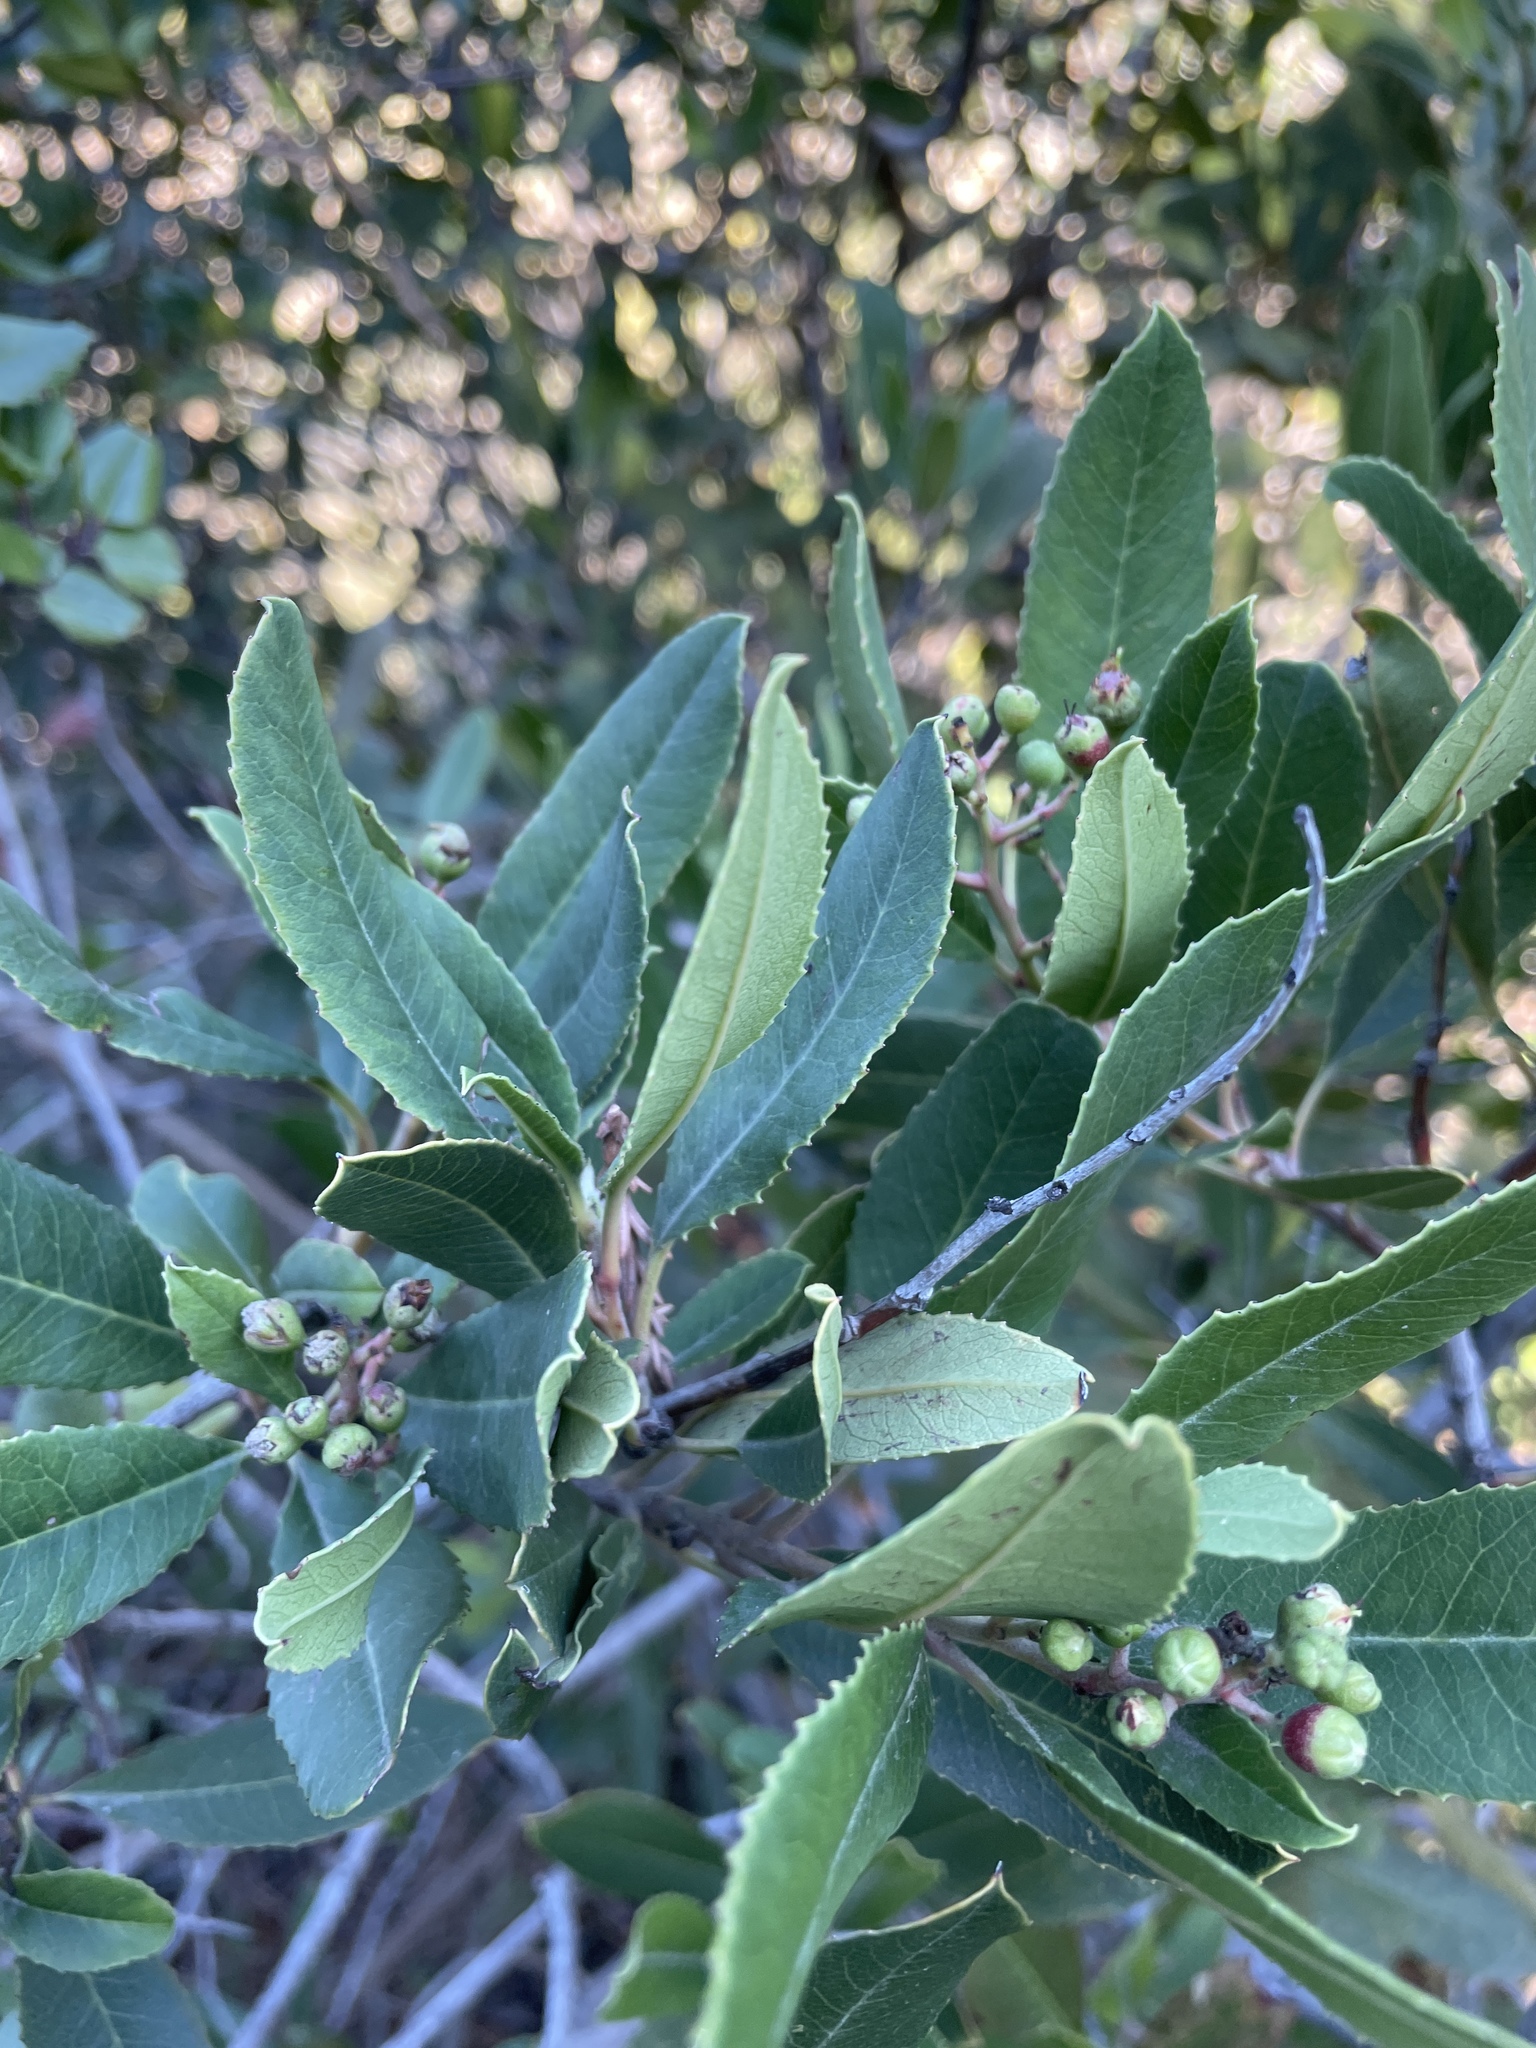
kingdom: Plantae
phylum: Tracheophyta
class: Magnoliopsida
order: Rosales
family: Rosaceae
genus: Heteromeles
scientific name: Heteromeles arbutifolia
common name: California-holly
